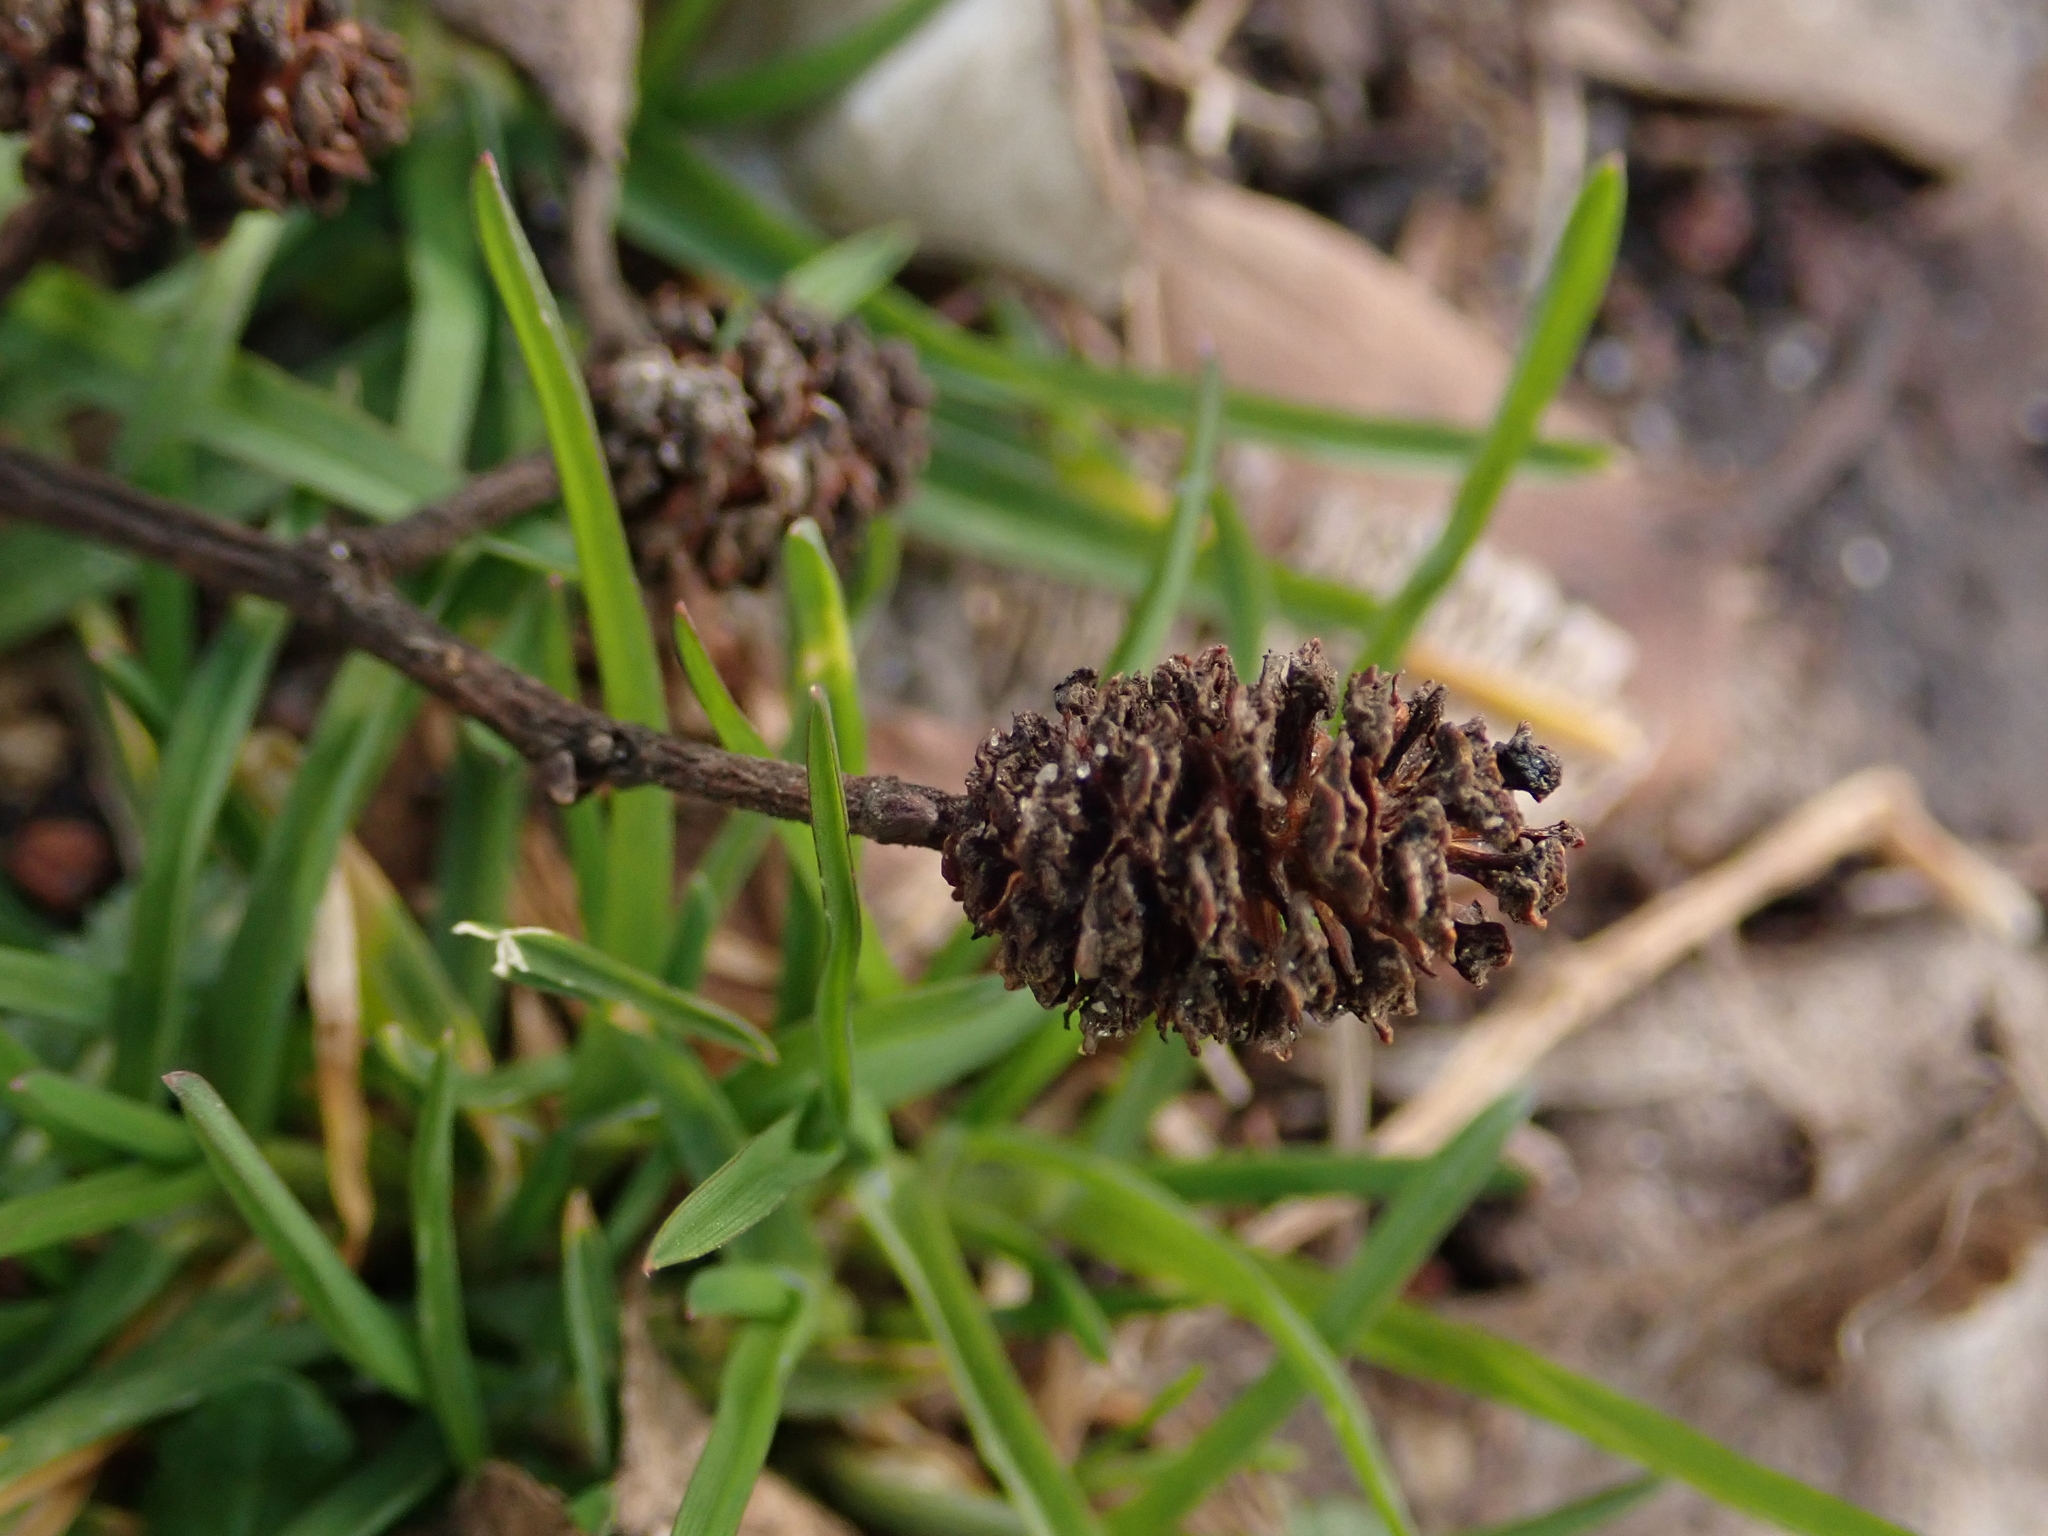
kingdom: Plantae
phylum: Tracheophyta
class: Magnoliopsida
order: Fagales
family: Betulaceae
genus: Alnus
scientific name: Alnus glutinosa
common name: Black alder
